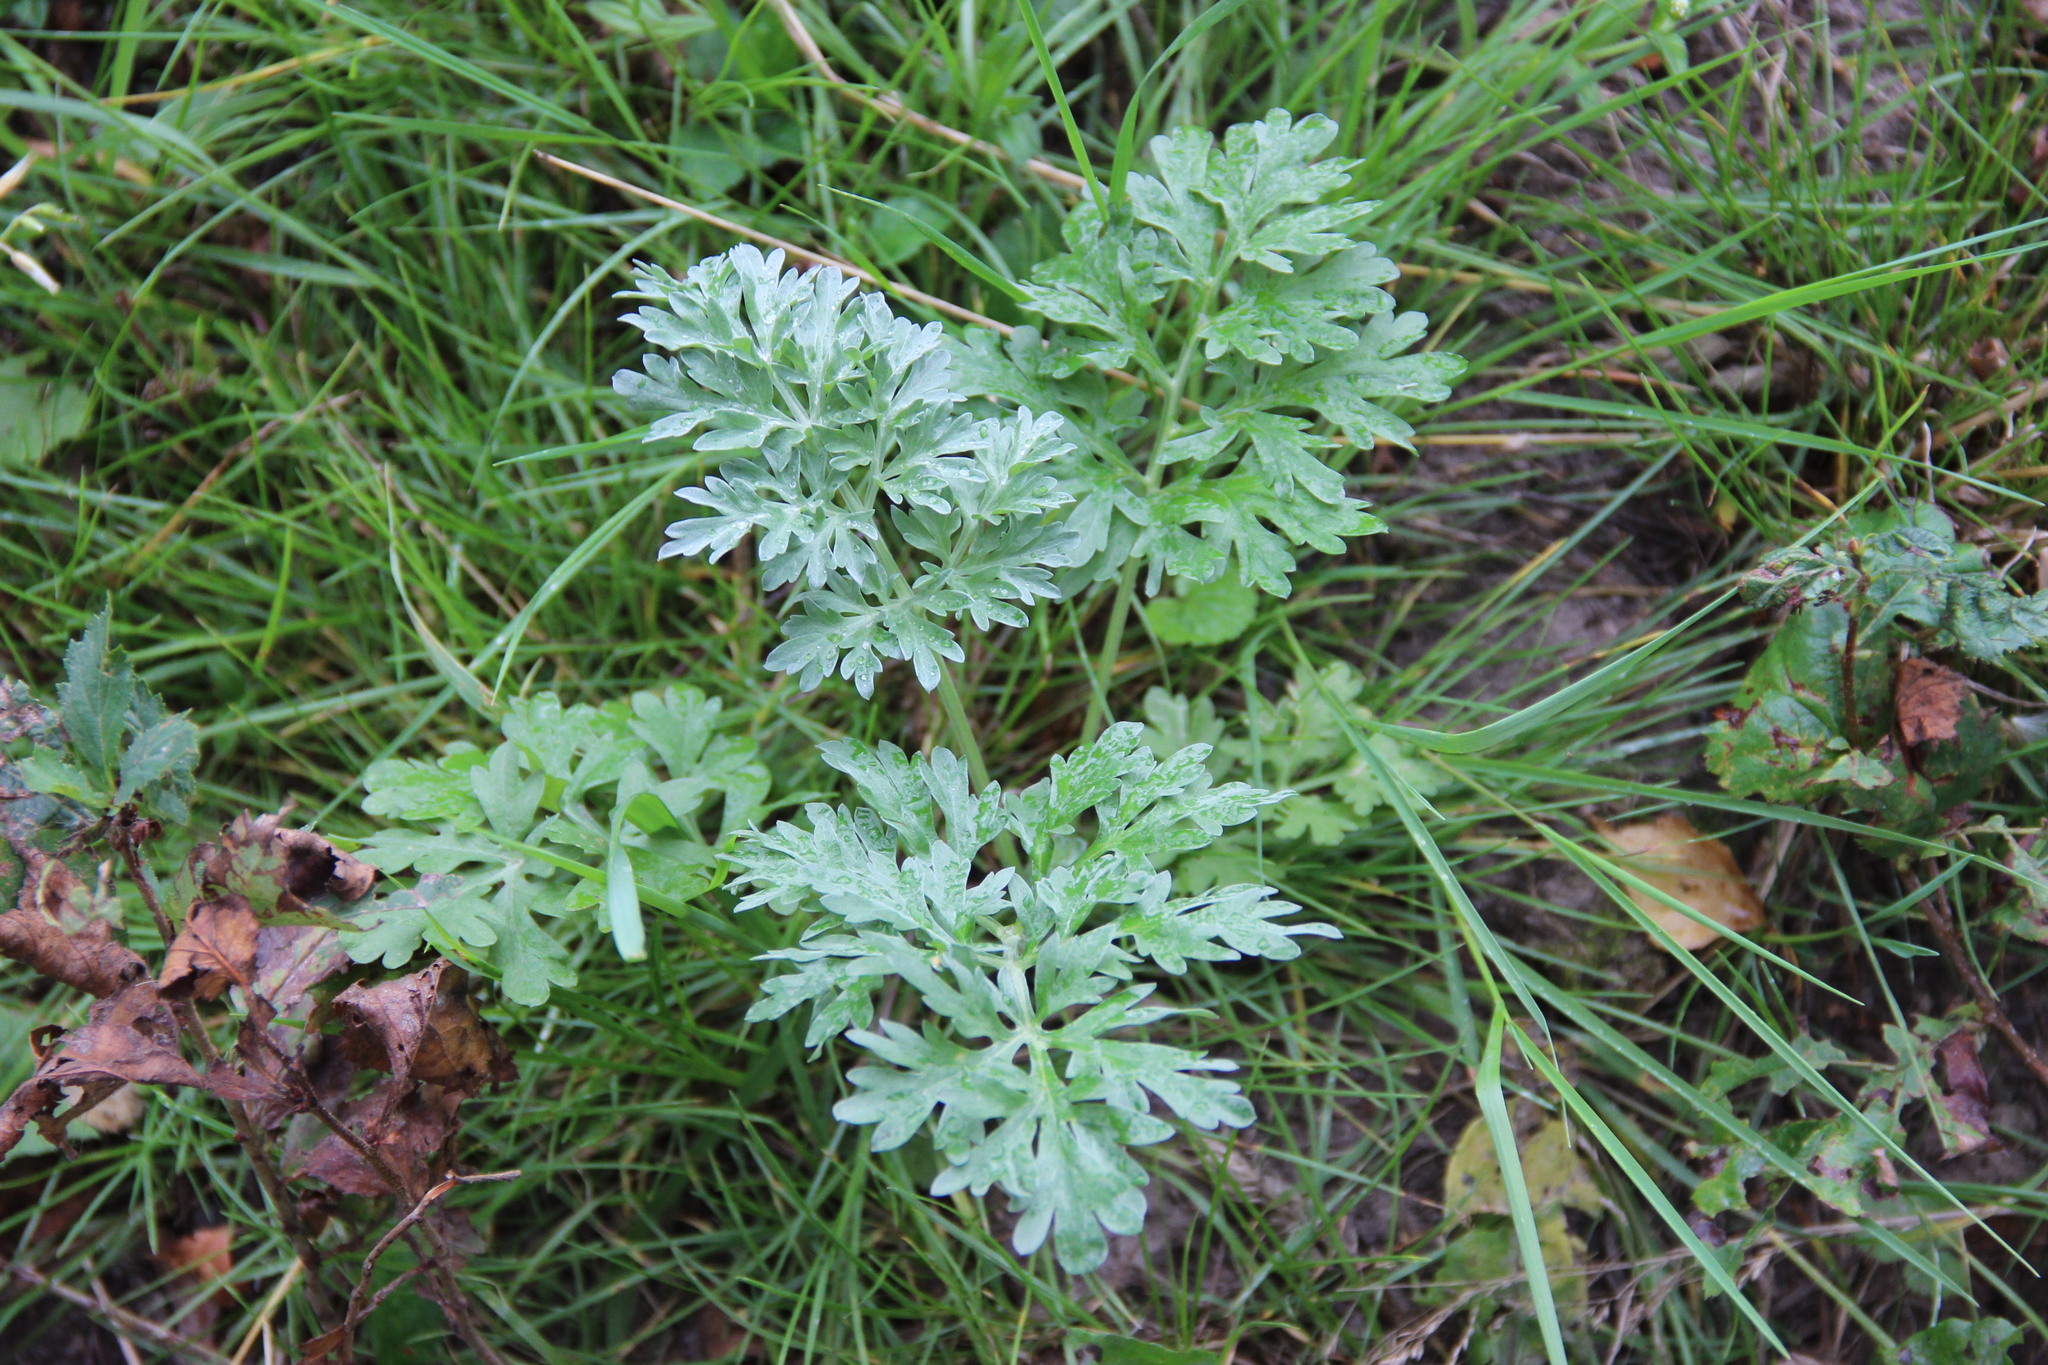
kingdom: Plantae
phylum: Tracheophyta
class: Magnoliopsida
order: Asterales
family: Asteraceae
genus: Artemisia
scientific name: Artemisia absinthium
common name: Wormwood
